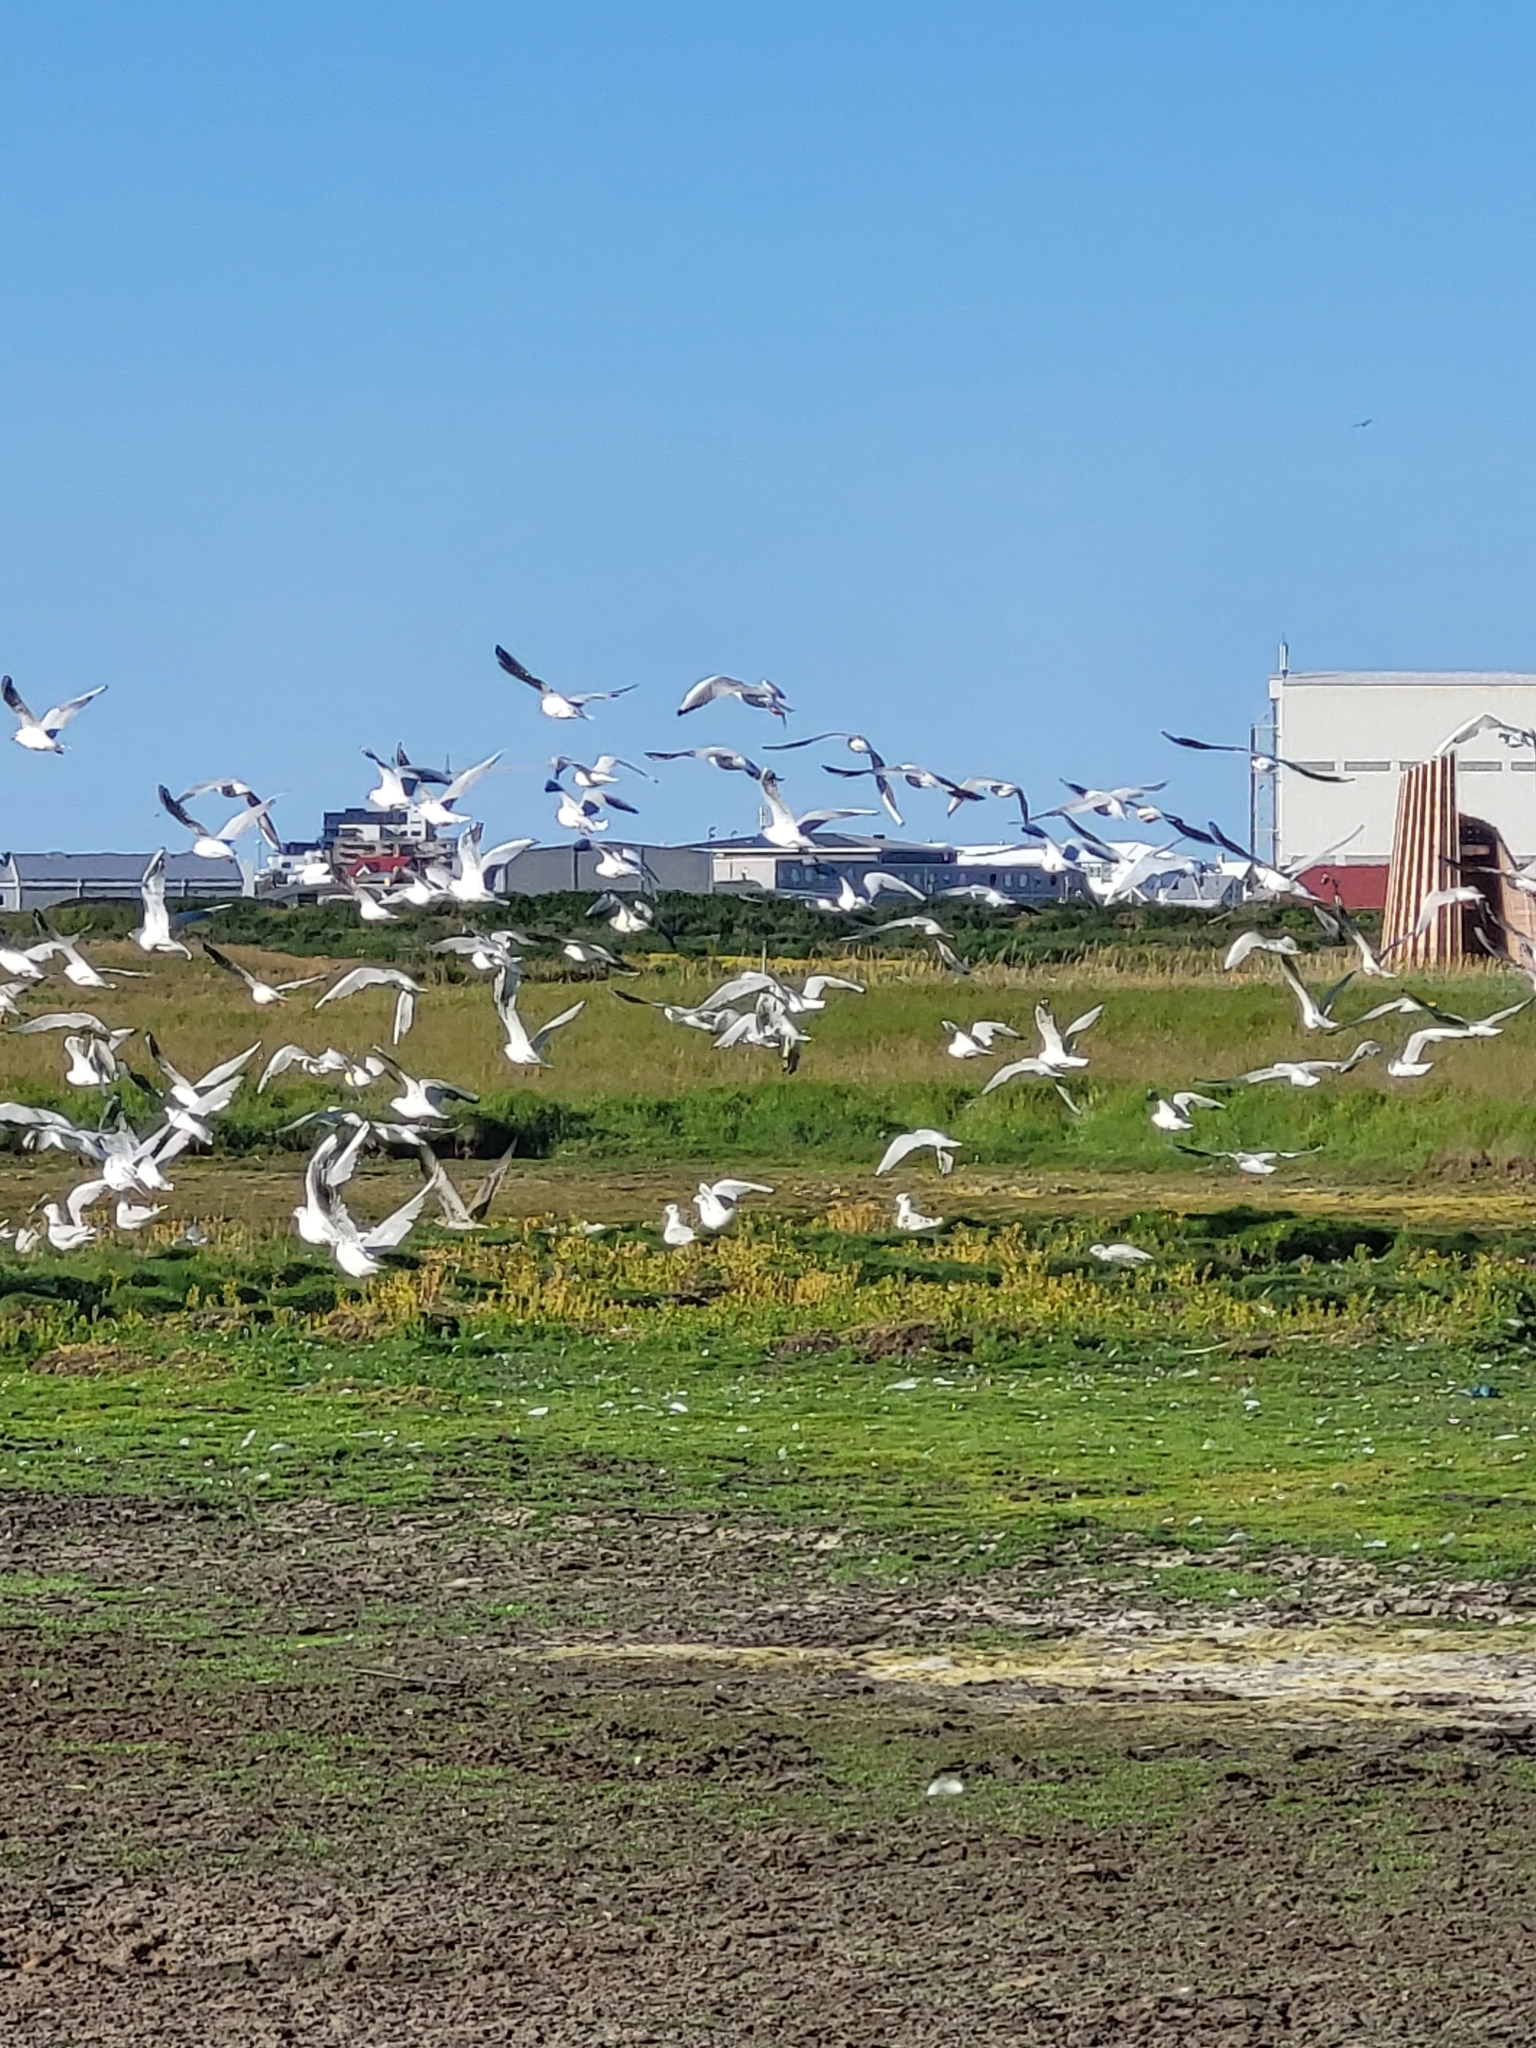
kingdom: Animalia
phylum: Chordata
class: Aves
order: Charadriiformes
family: Laridae
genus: Chroicocephalus
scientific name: Chroicocephalus ridibundus
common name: Black-headed gull
